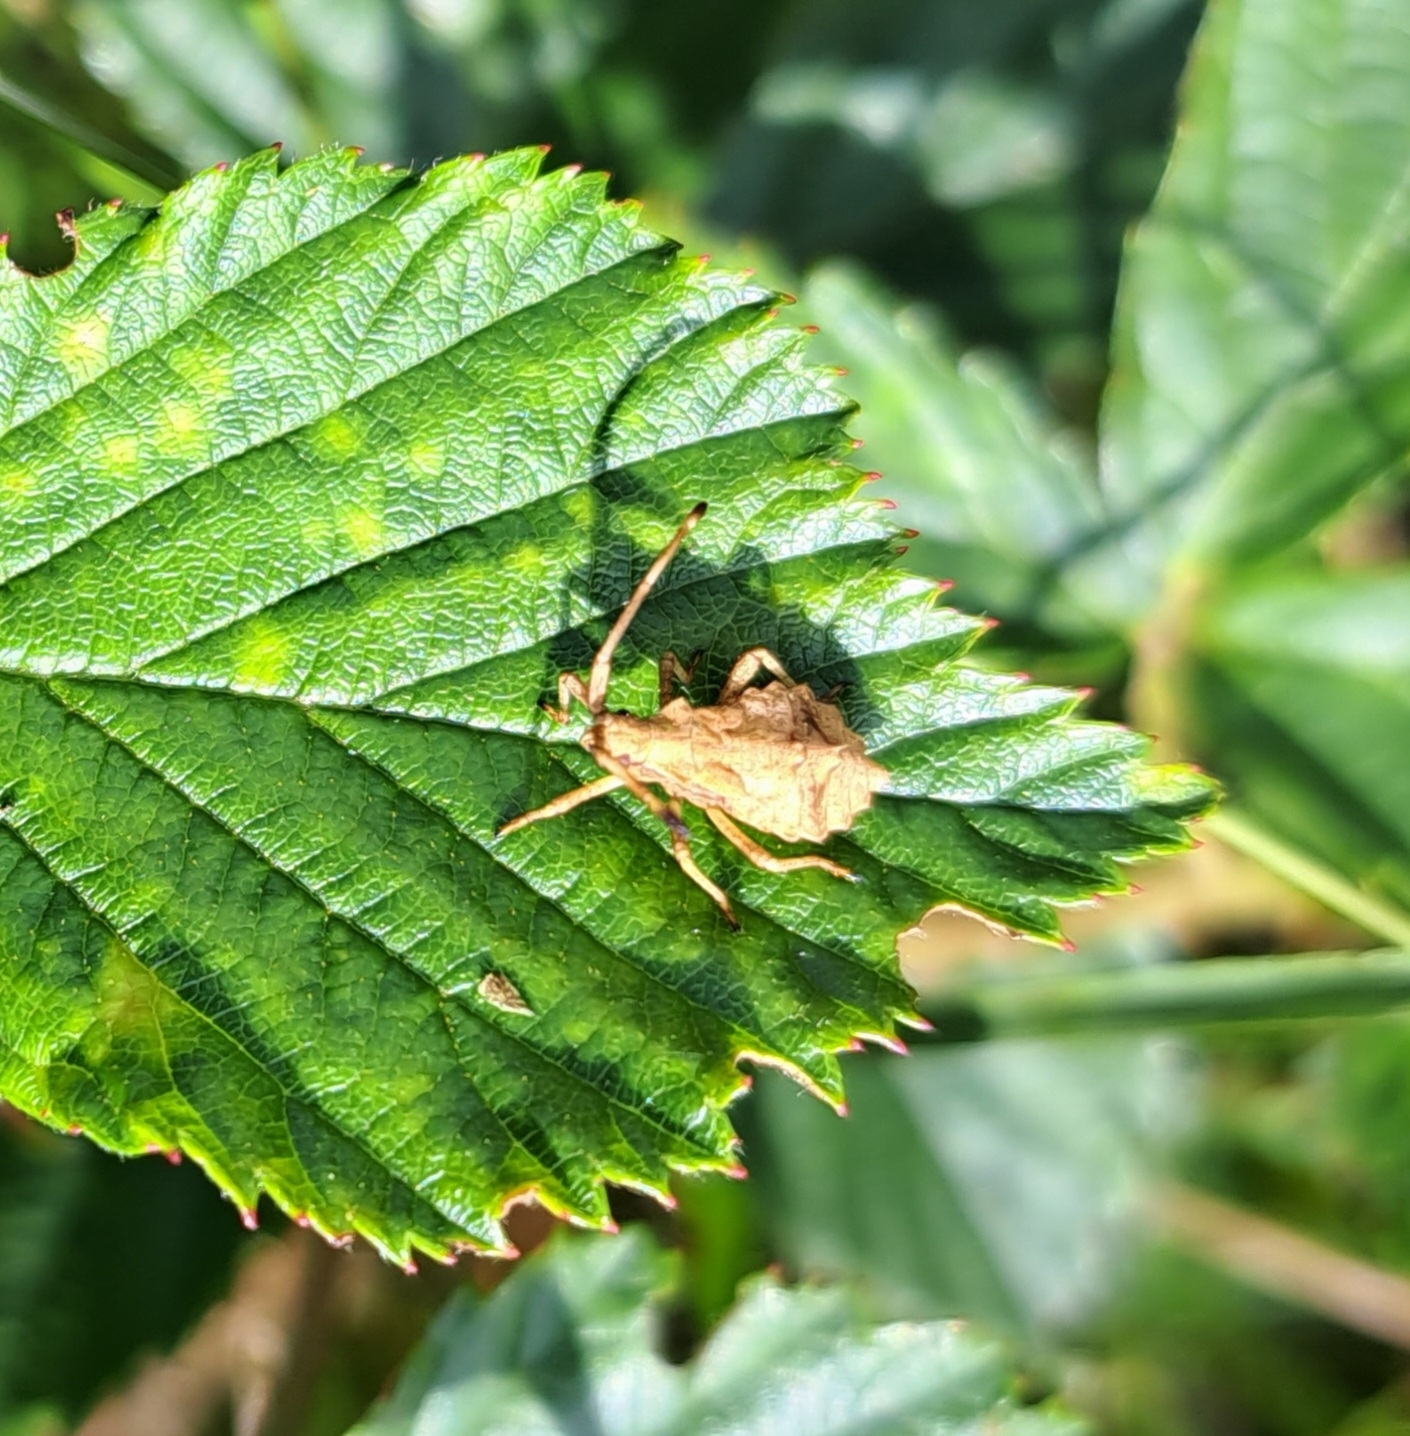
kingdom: Animalia
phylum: Arthropoda
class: Insecta
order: Hemiptera
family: Coreidae
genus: Coreus
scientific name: Coreus marginatus
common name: Dock bug
